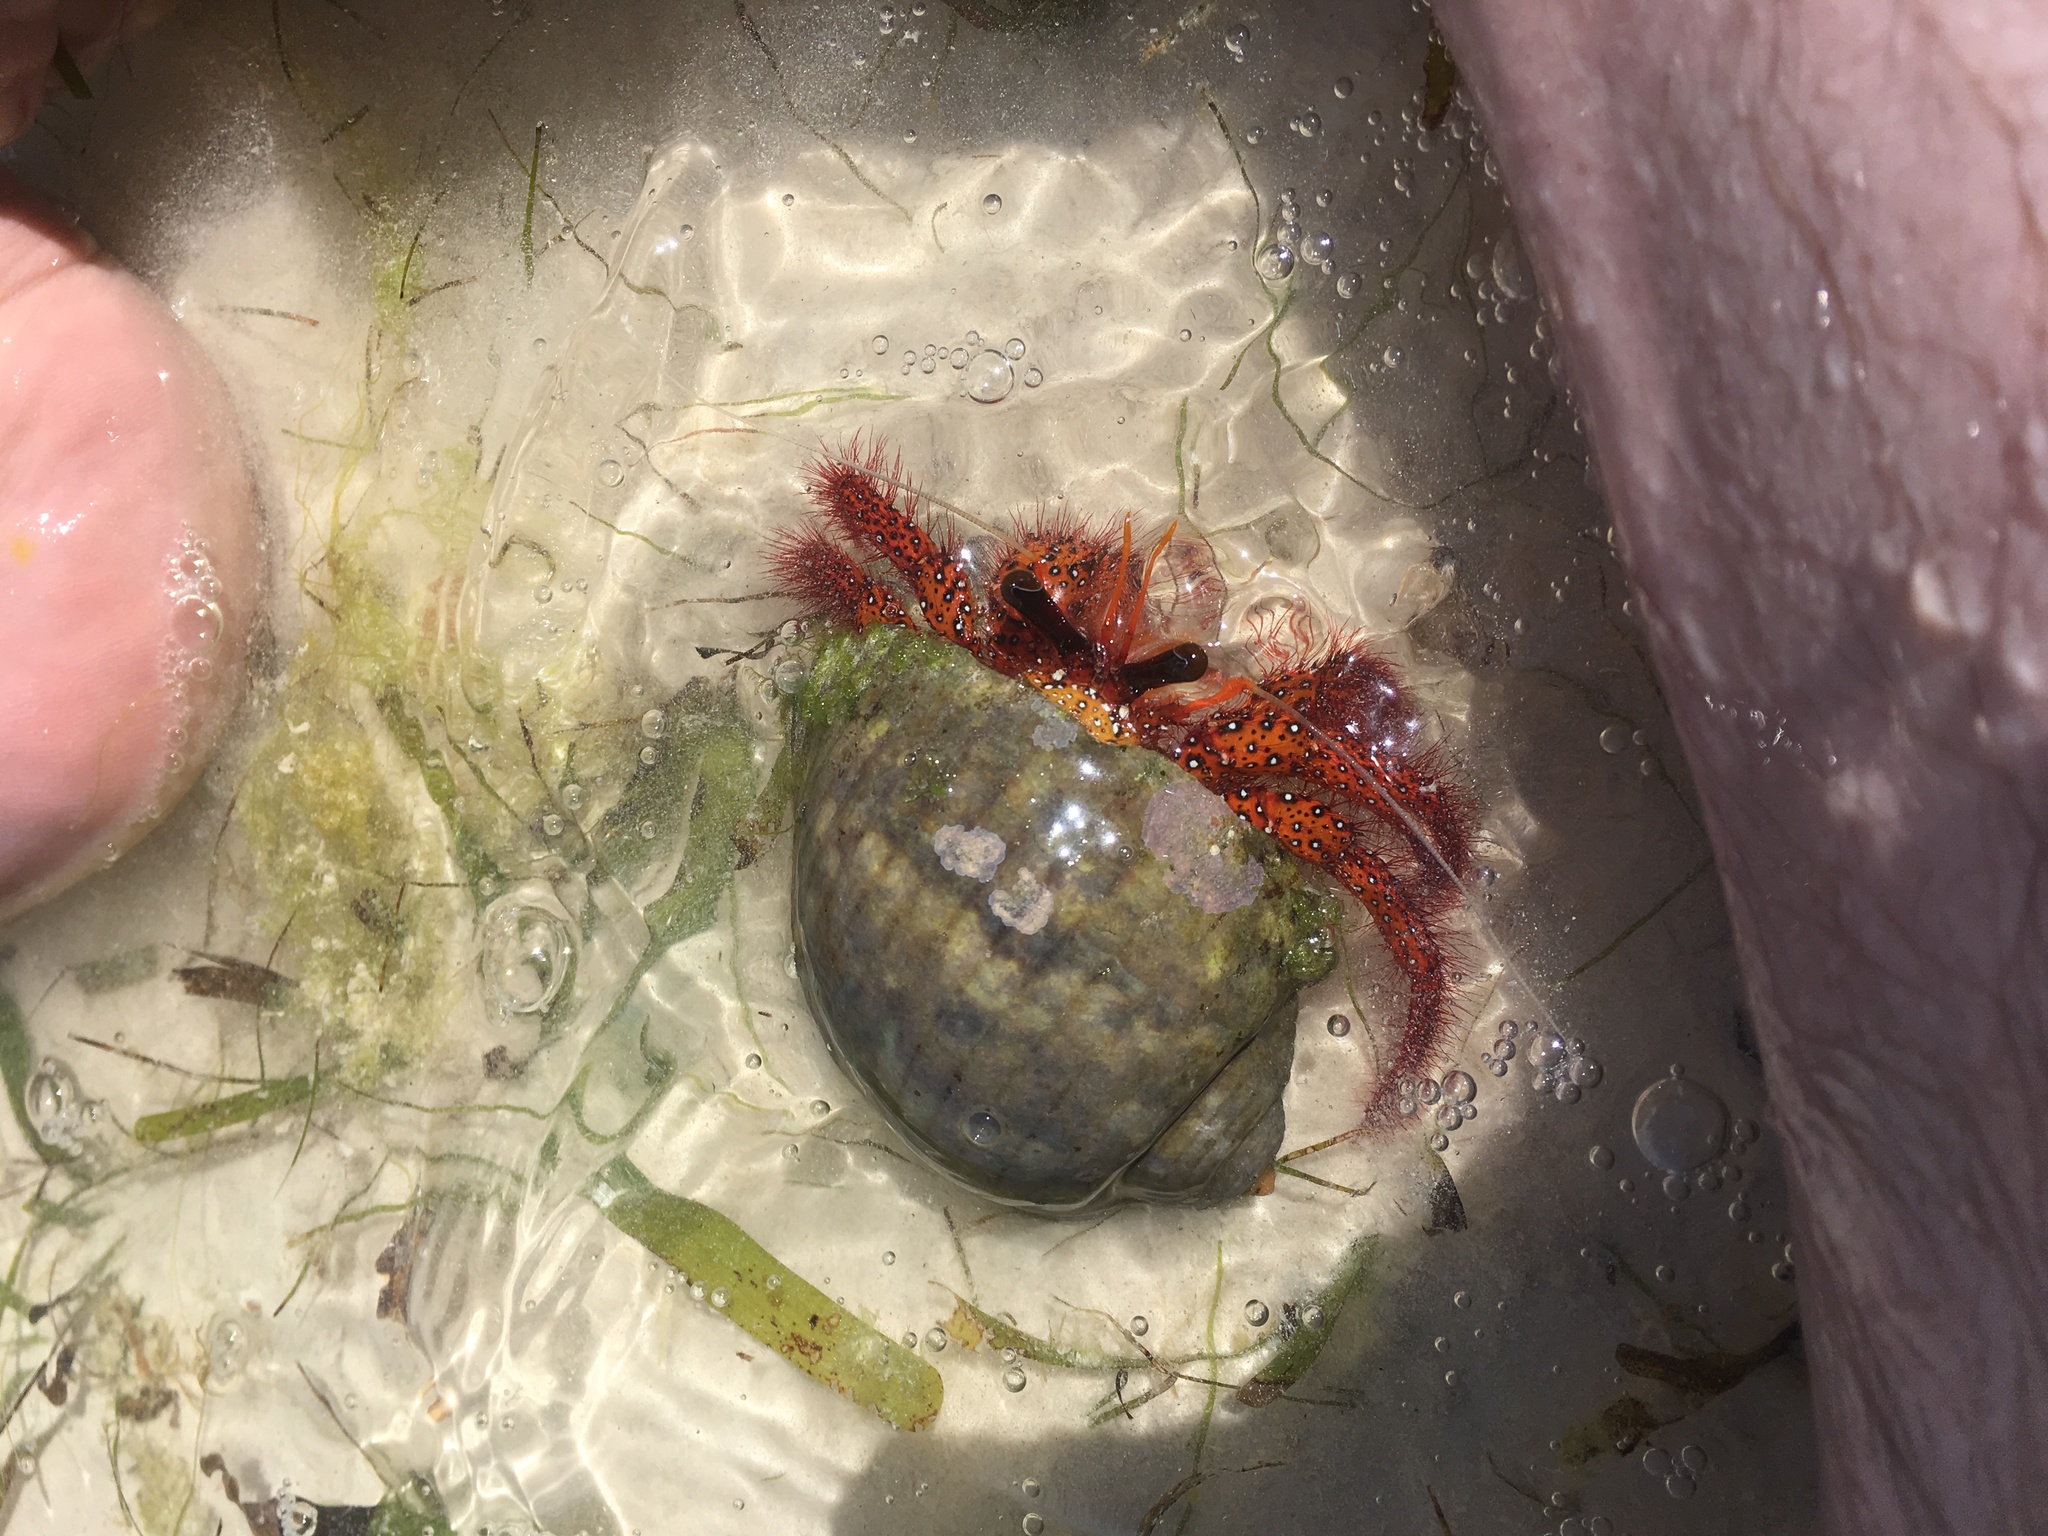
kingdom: Animalia
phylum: Arthropoda
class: Malacostraca
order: Decapoda
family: Diogenidae
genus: Dardanus
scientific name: Dardanus megistos
